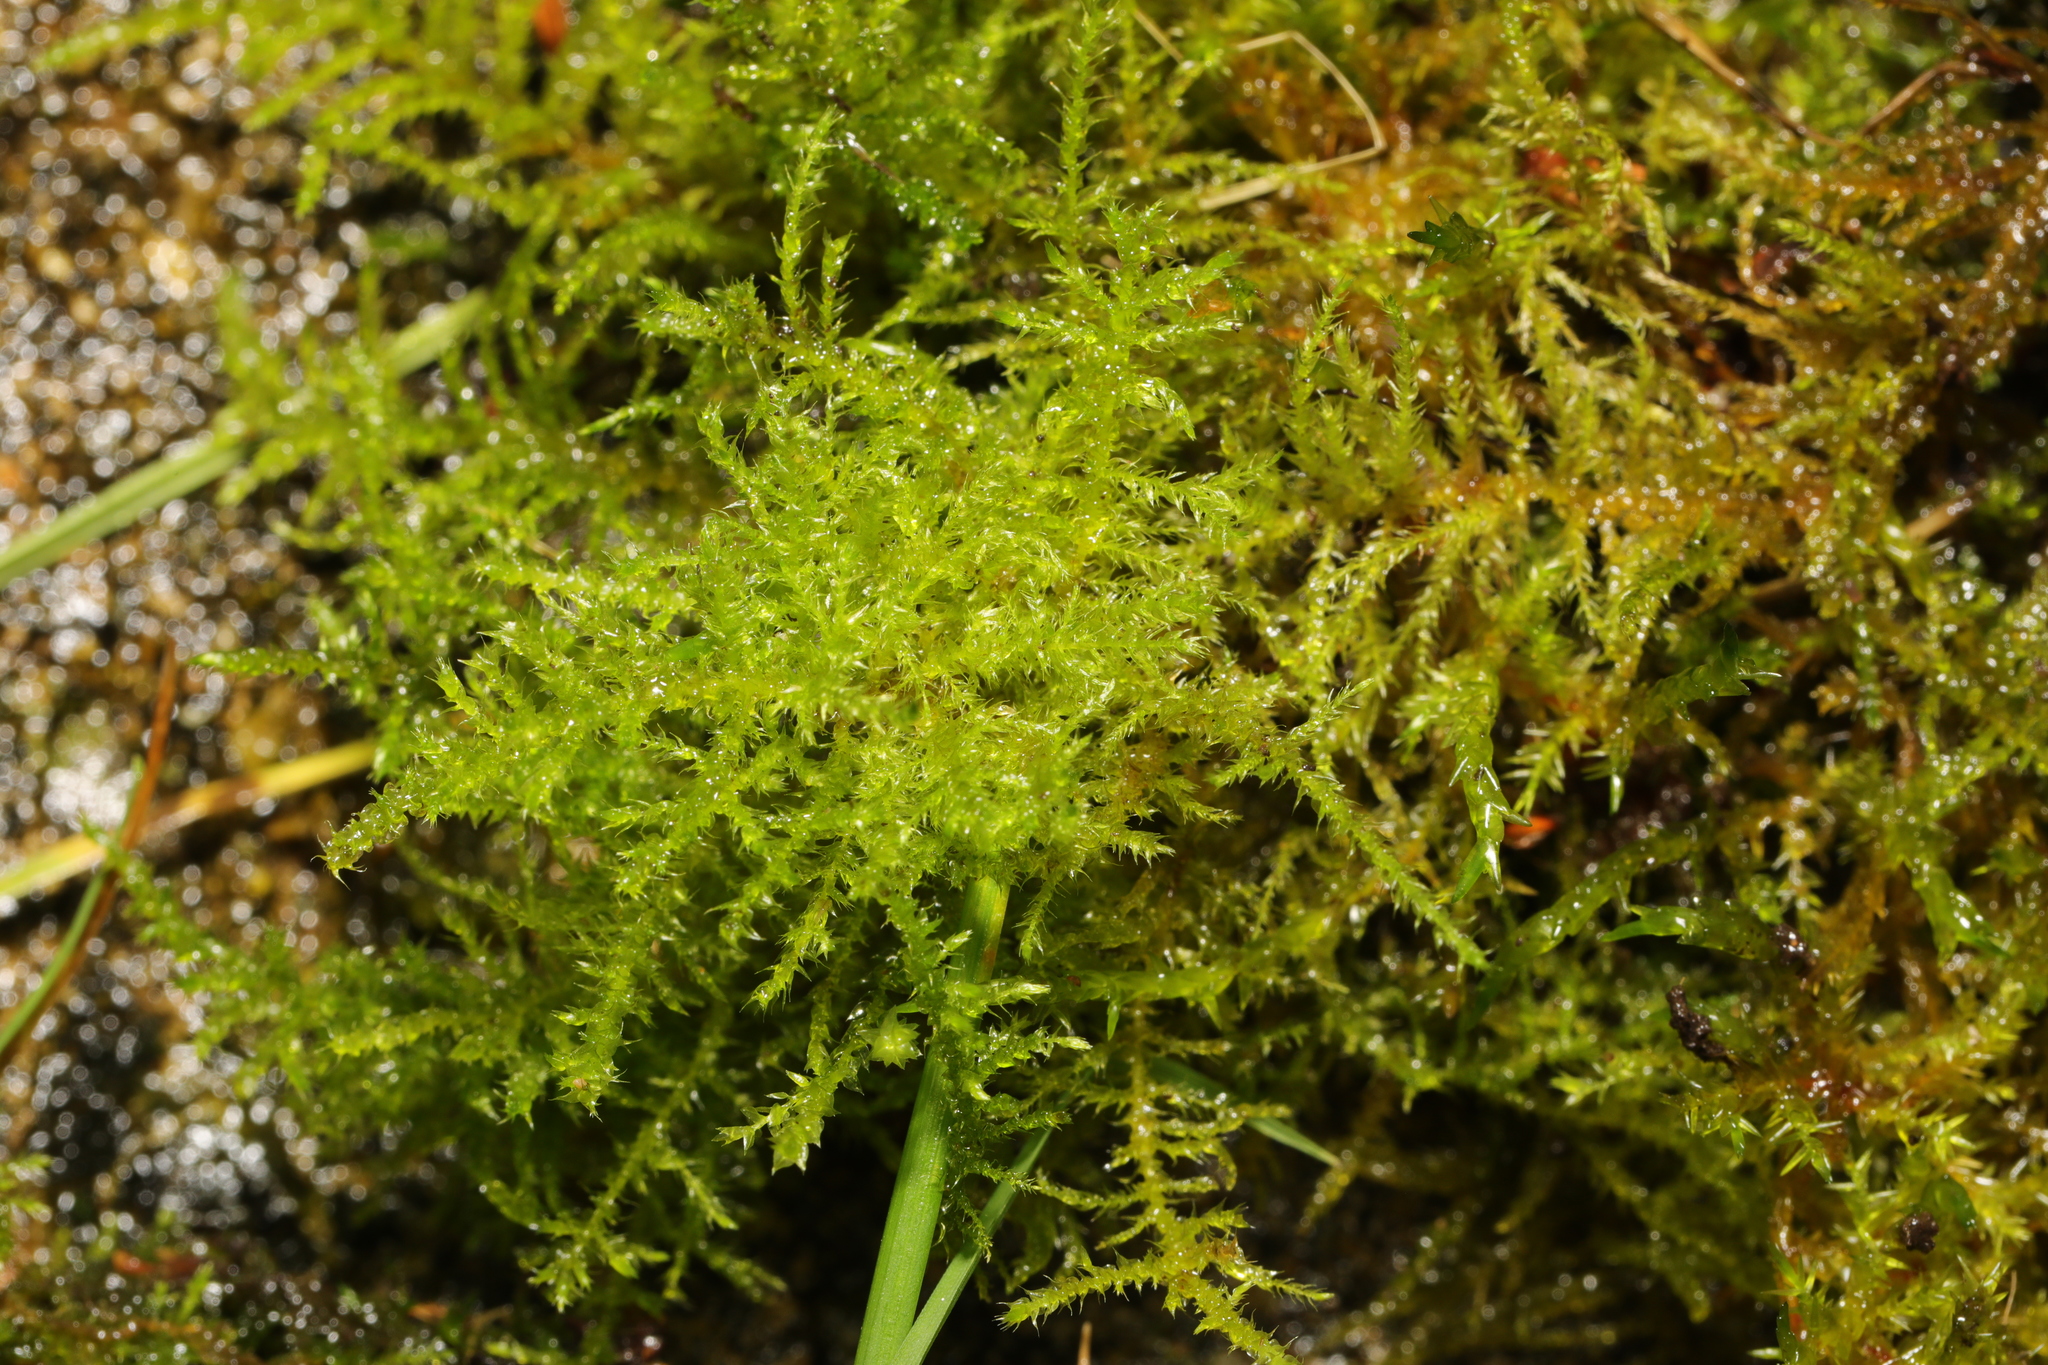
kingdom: Plantae
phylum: Bryophyta
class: Bryopsida
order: Hypnales
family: Brachytheciaceae
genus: Kindbergia
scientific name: Kindbergia praelonga
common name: Slender beaked moss
